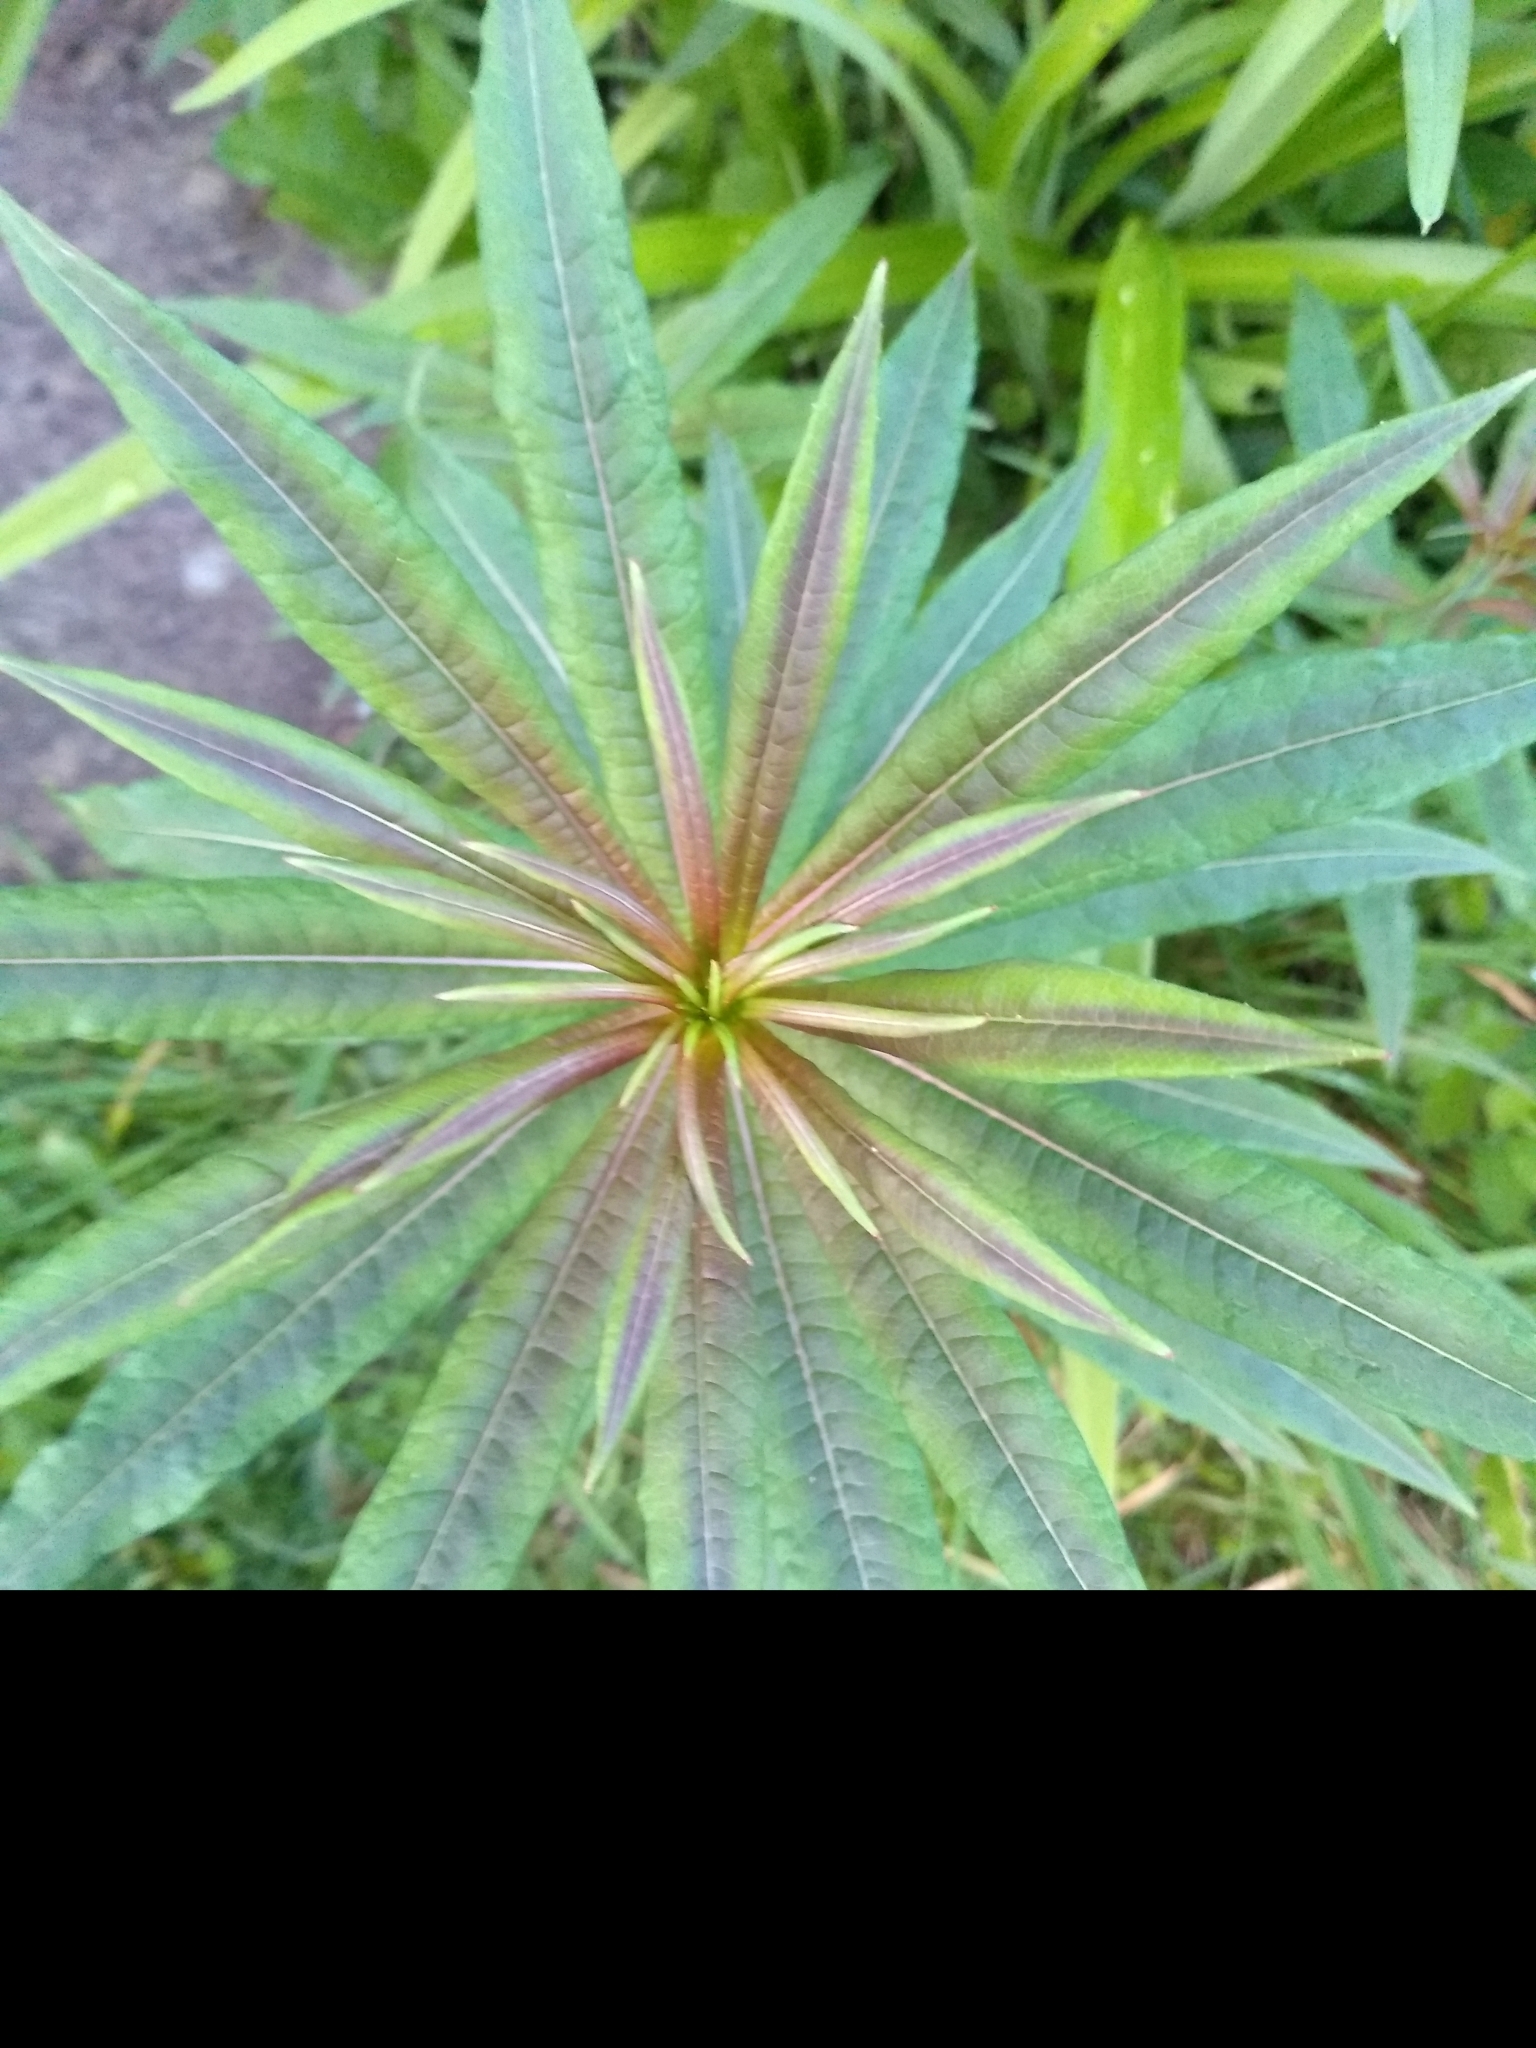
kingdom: Plantae
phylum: Tracheophyta
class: Magnoliopsida
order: Myrtales
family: Onagraceae
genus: Chamaenerion
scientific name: Chamaenerion angustifolium
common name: Fireweed
